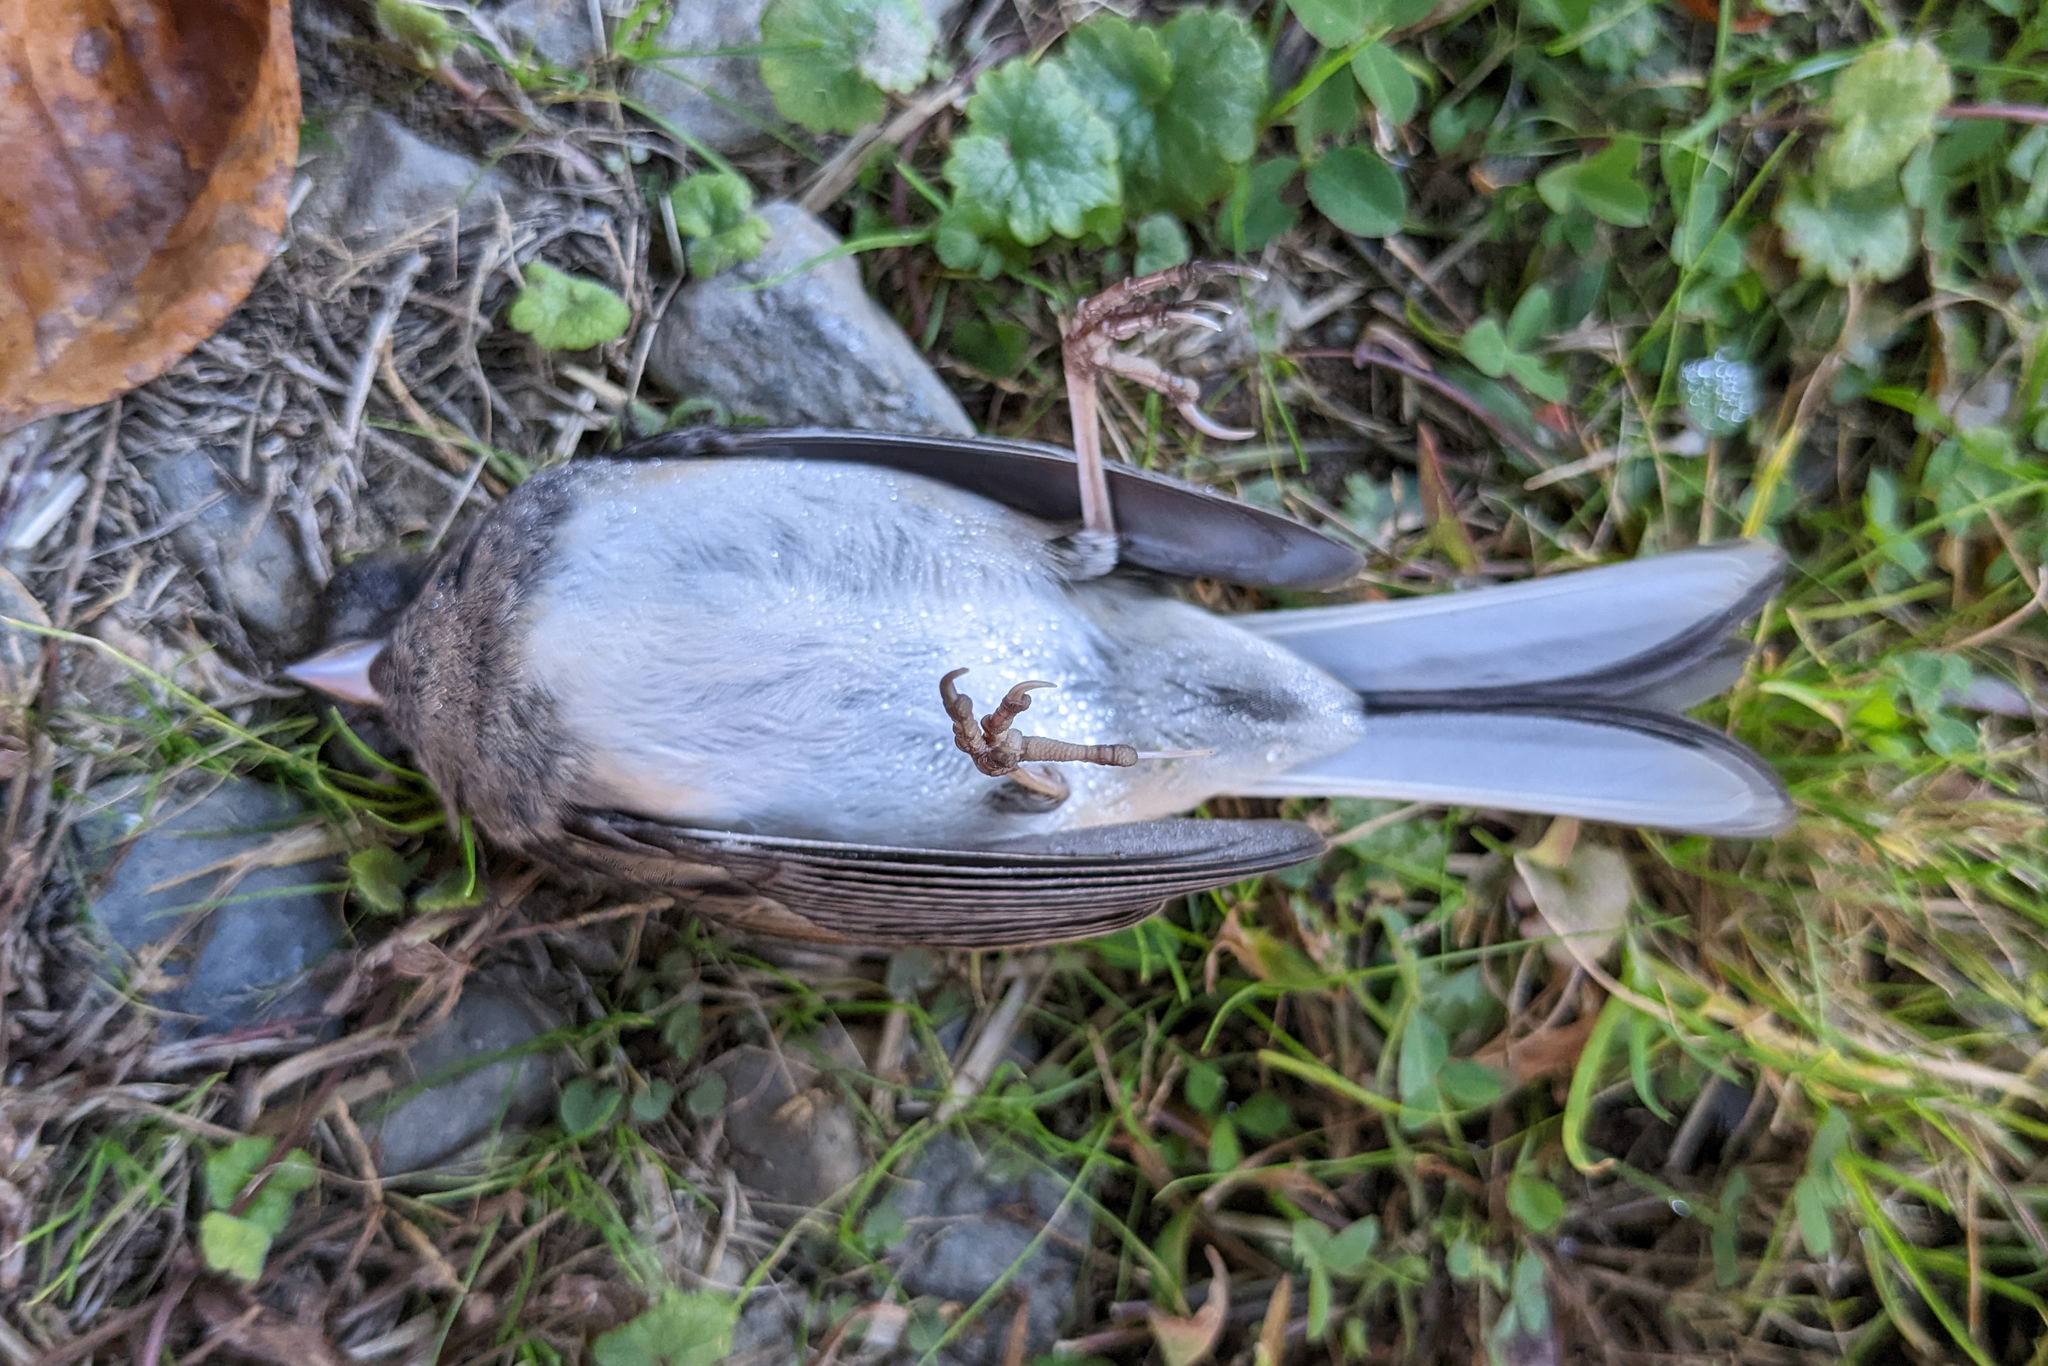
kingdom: Animalia
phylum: Chordata
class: Aves
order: Passeriformes
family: Passerellidae
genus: Junco
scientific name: Junco hyemalis
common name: Dark-eyed junco
